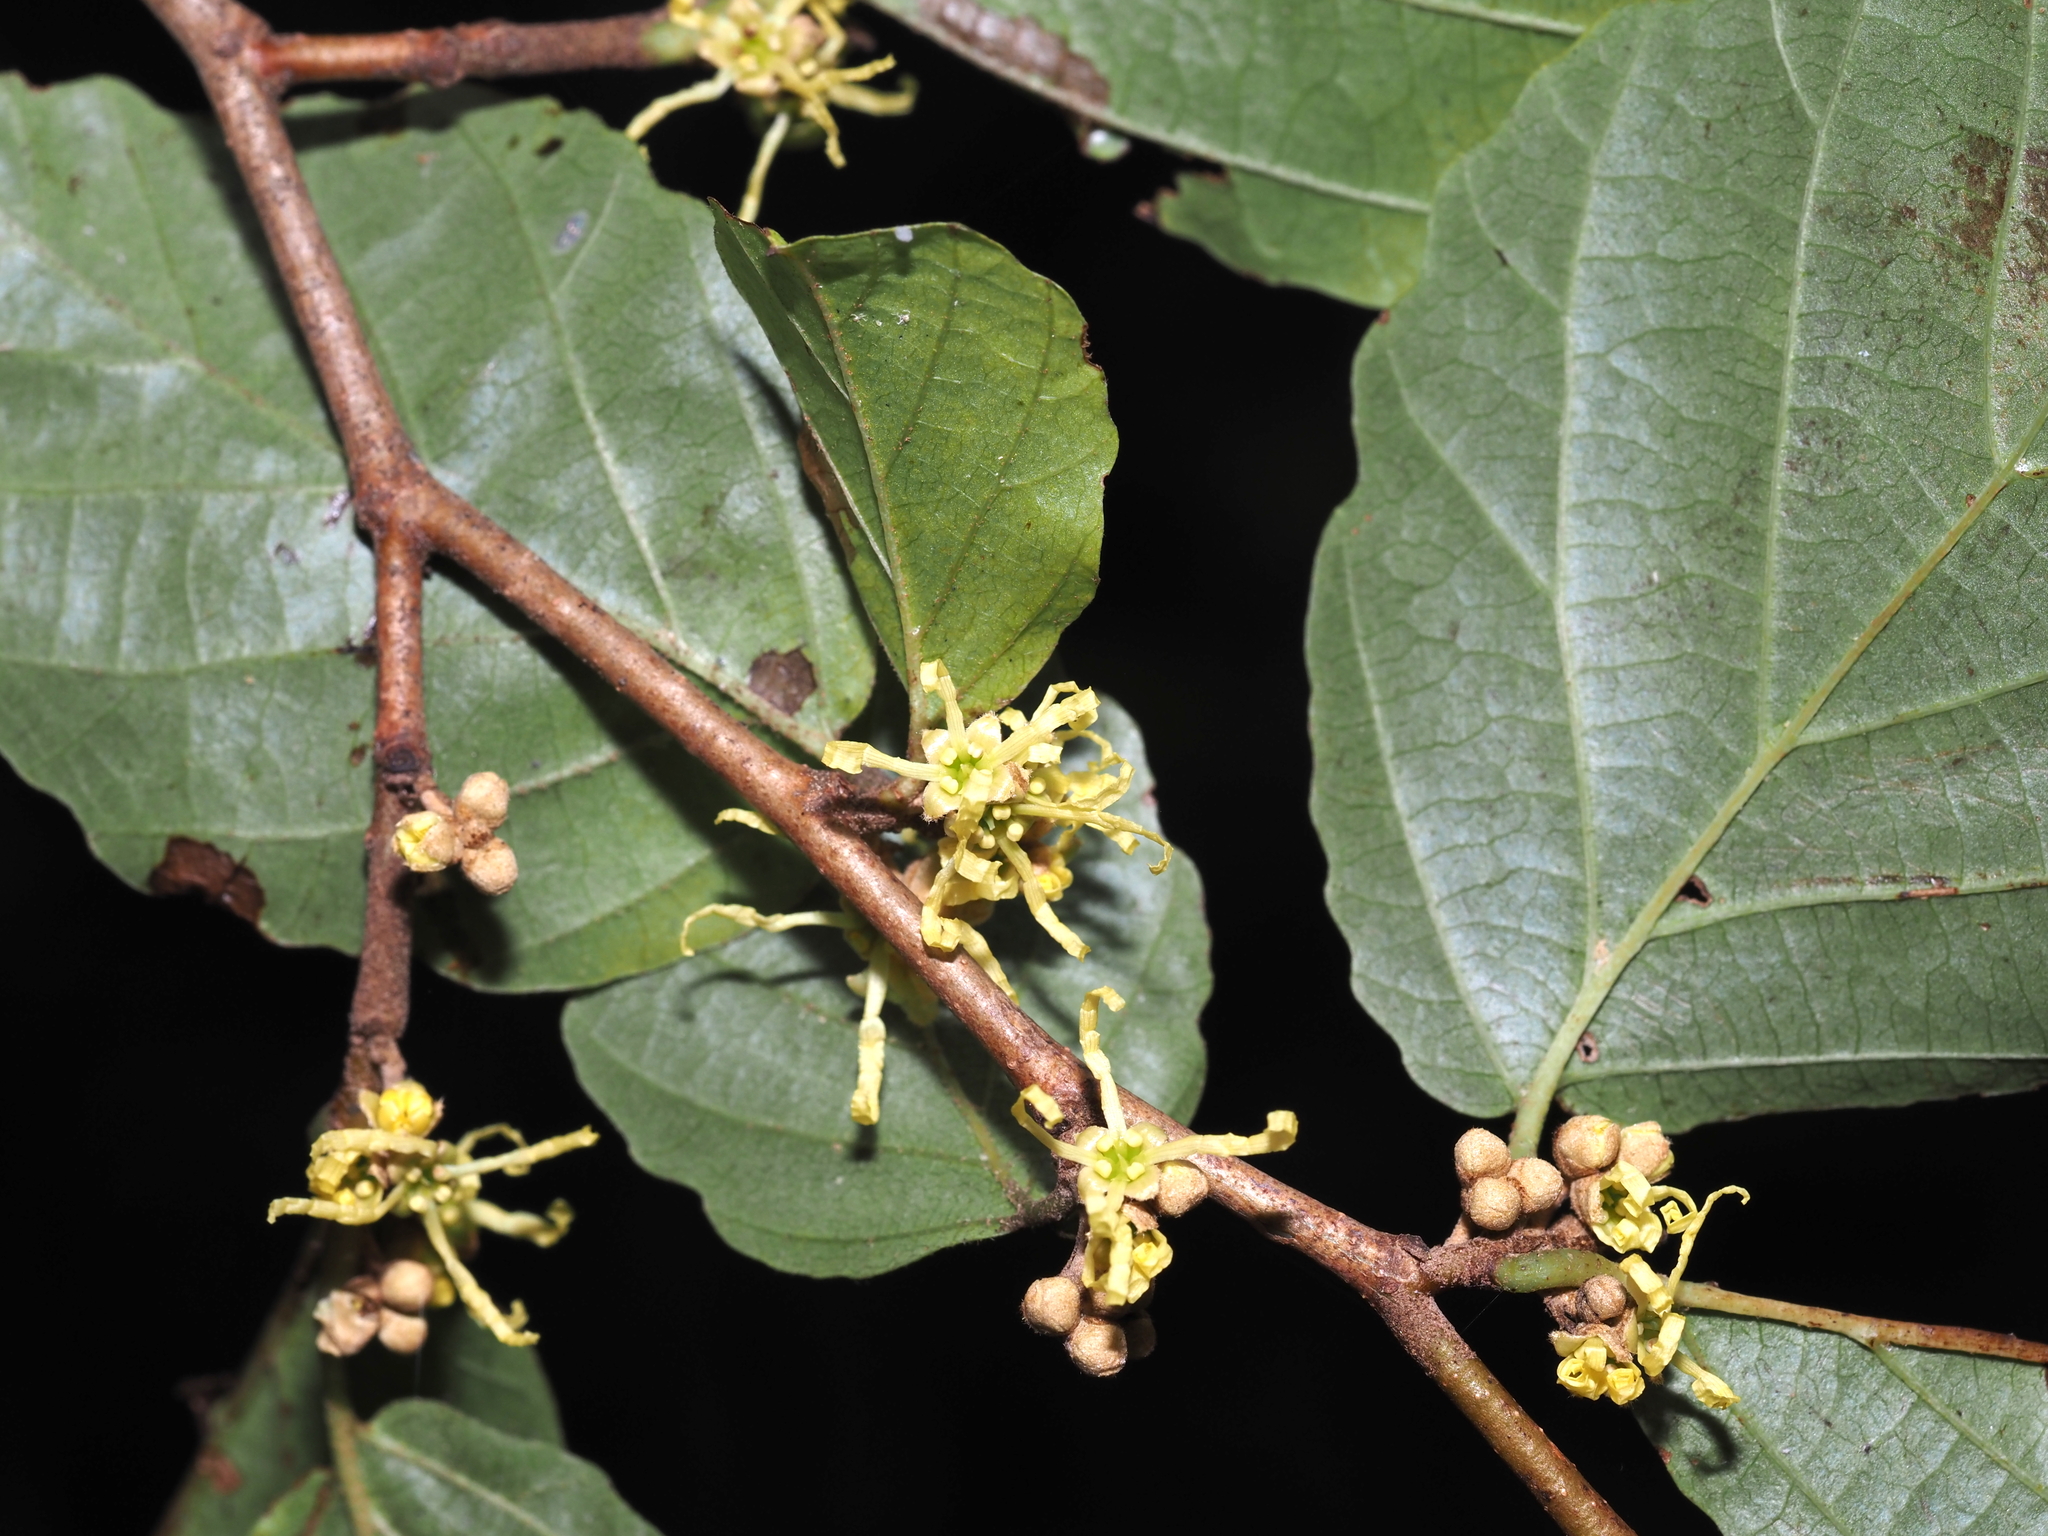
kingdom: Plantae
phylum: Tracheophyta
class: Magnoliopsida
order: Saxifragales
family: Hamamelidaceae
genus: Hamamelis
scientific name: Hamamelis virginiana
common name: Witch-hazel
